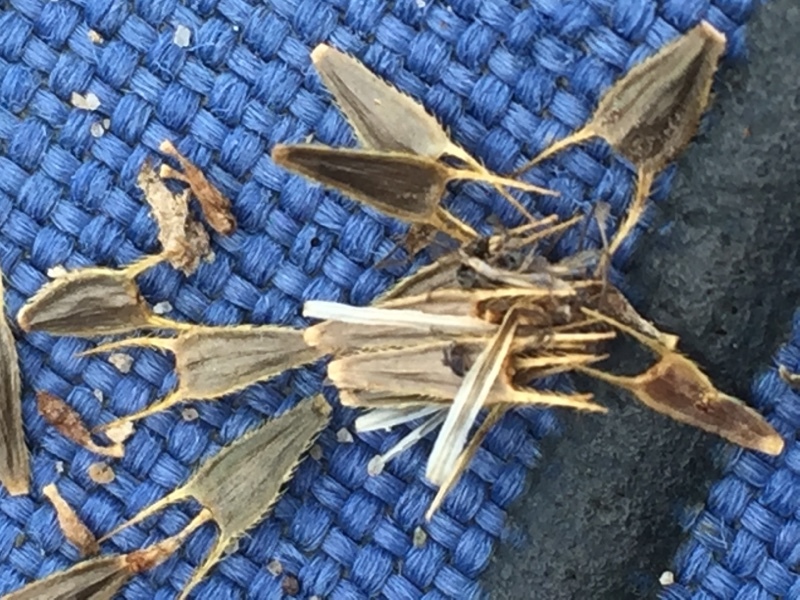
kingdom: Plantae
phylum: Tracheophyta
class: Magnoliopsida
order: Asterales
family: Asteraceae
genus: Bidens
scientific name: Bidens radiata
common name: Radiating bur-marigold
